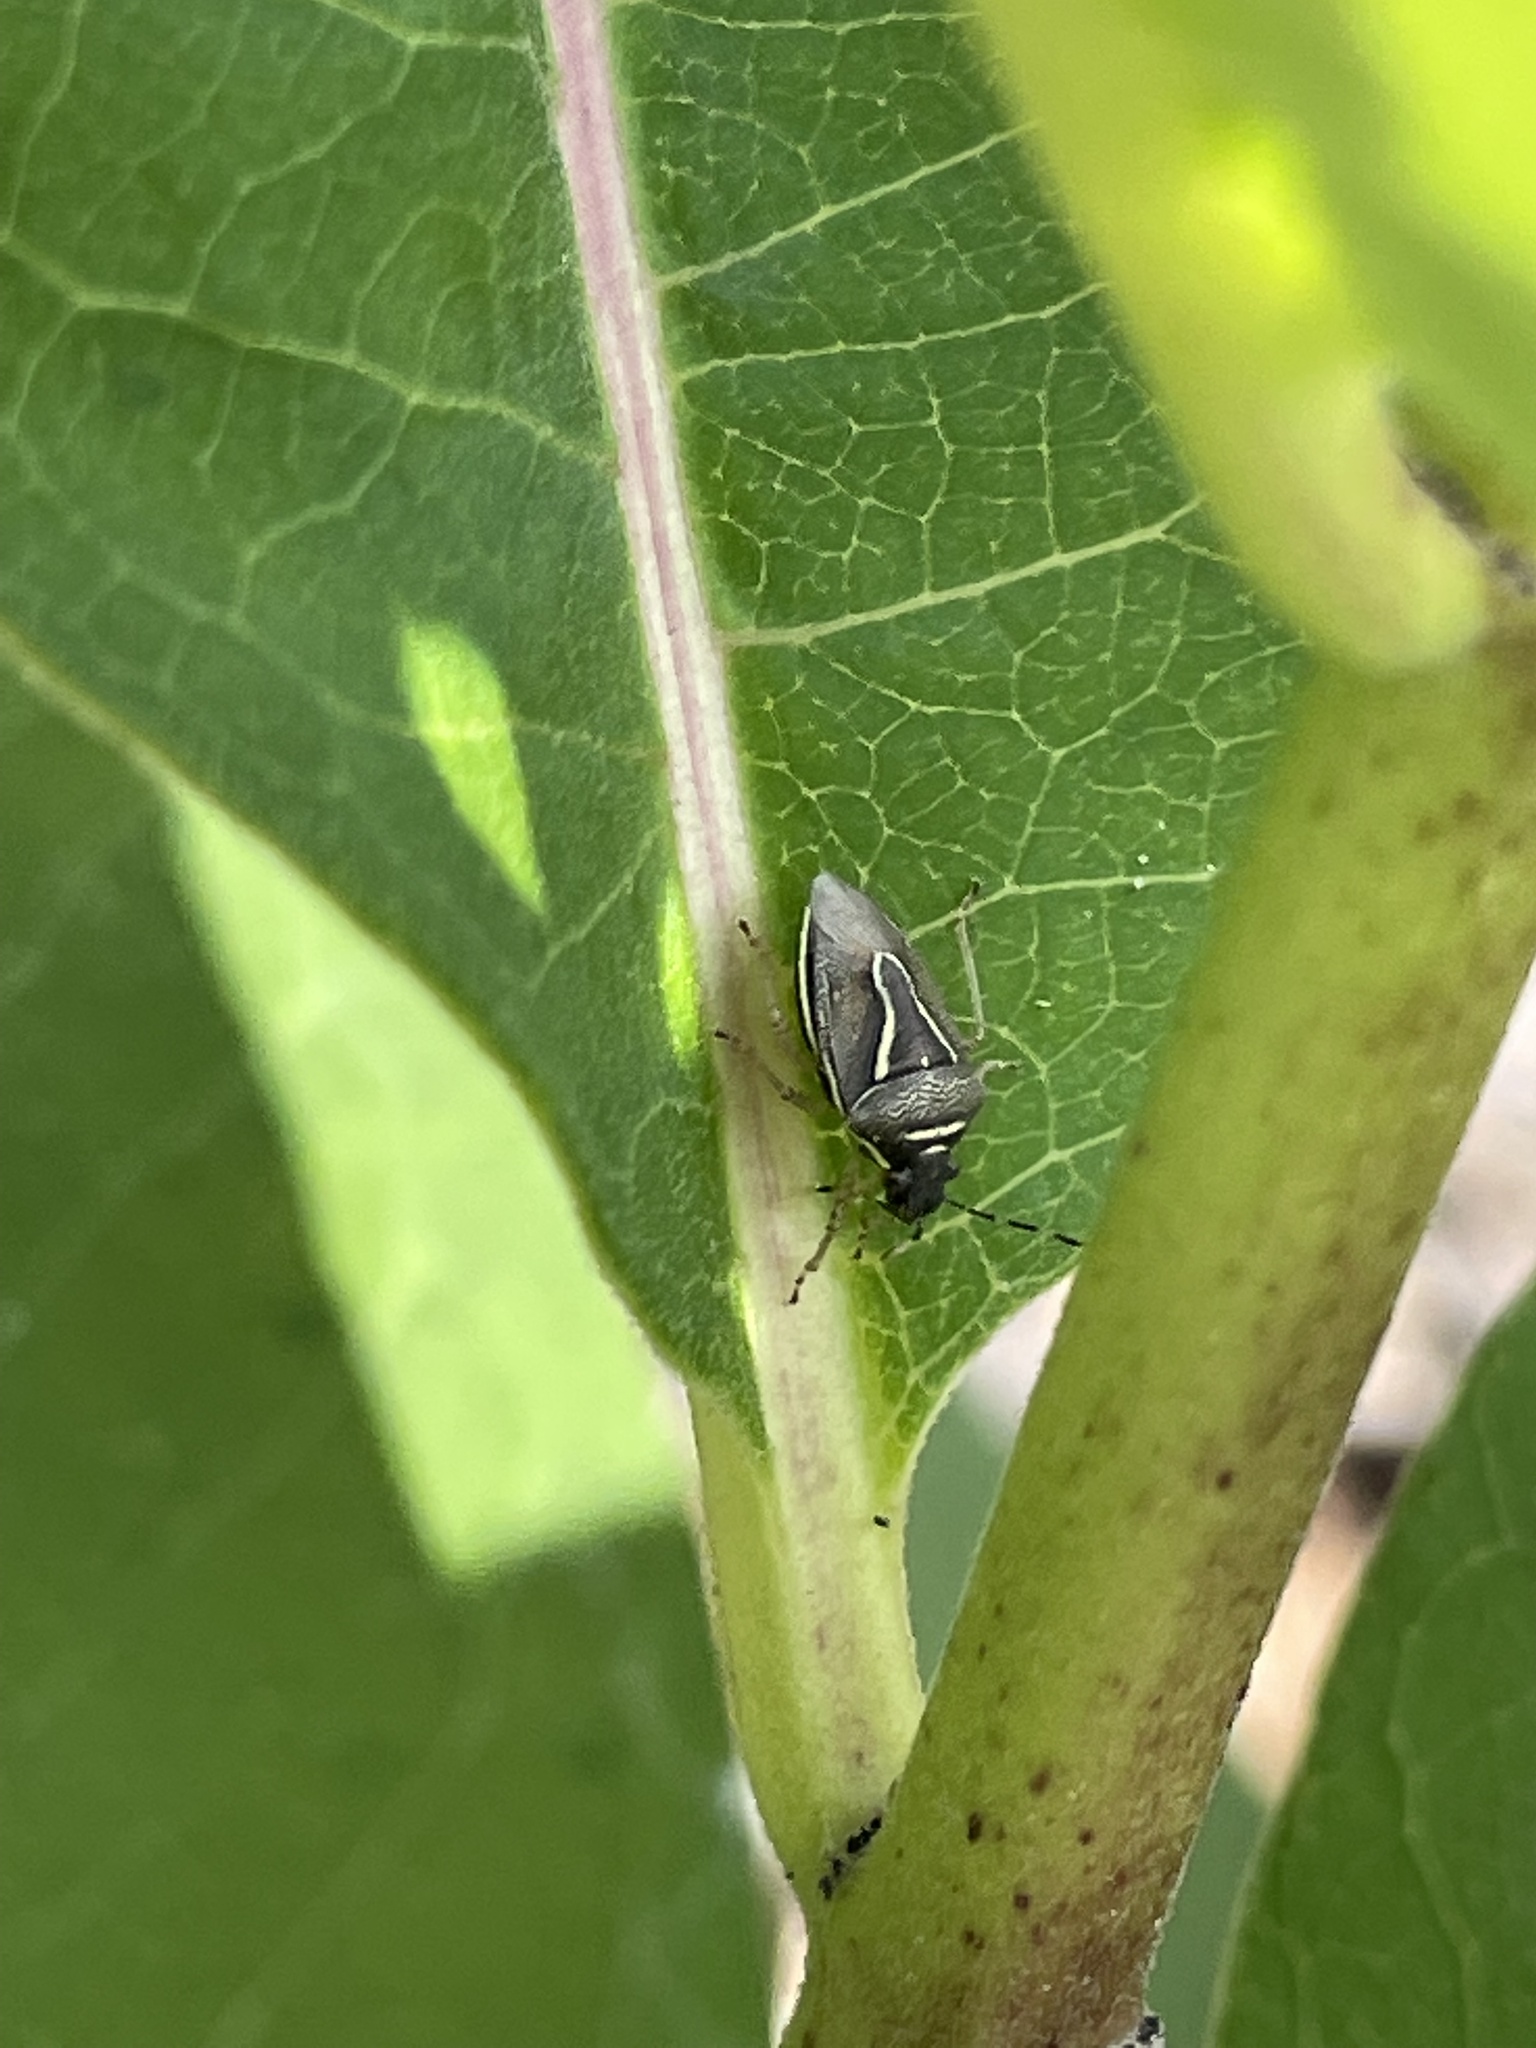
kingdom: Animalia
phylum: Arthropoda
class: Insecta
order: Hemiptera
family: Pentatomidae
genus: Mormidea
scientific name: Mormidea lugens
